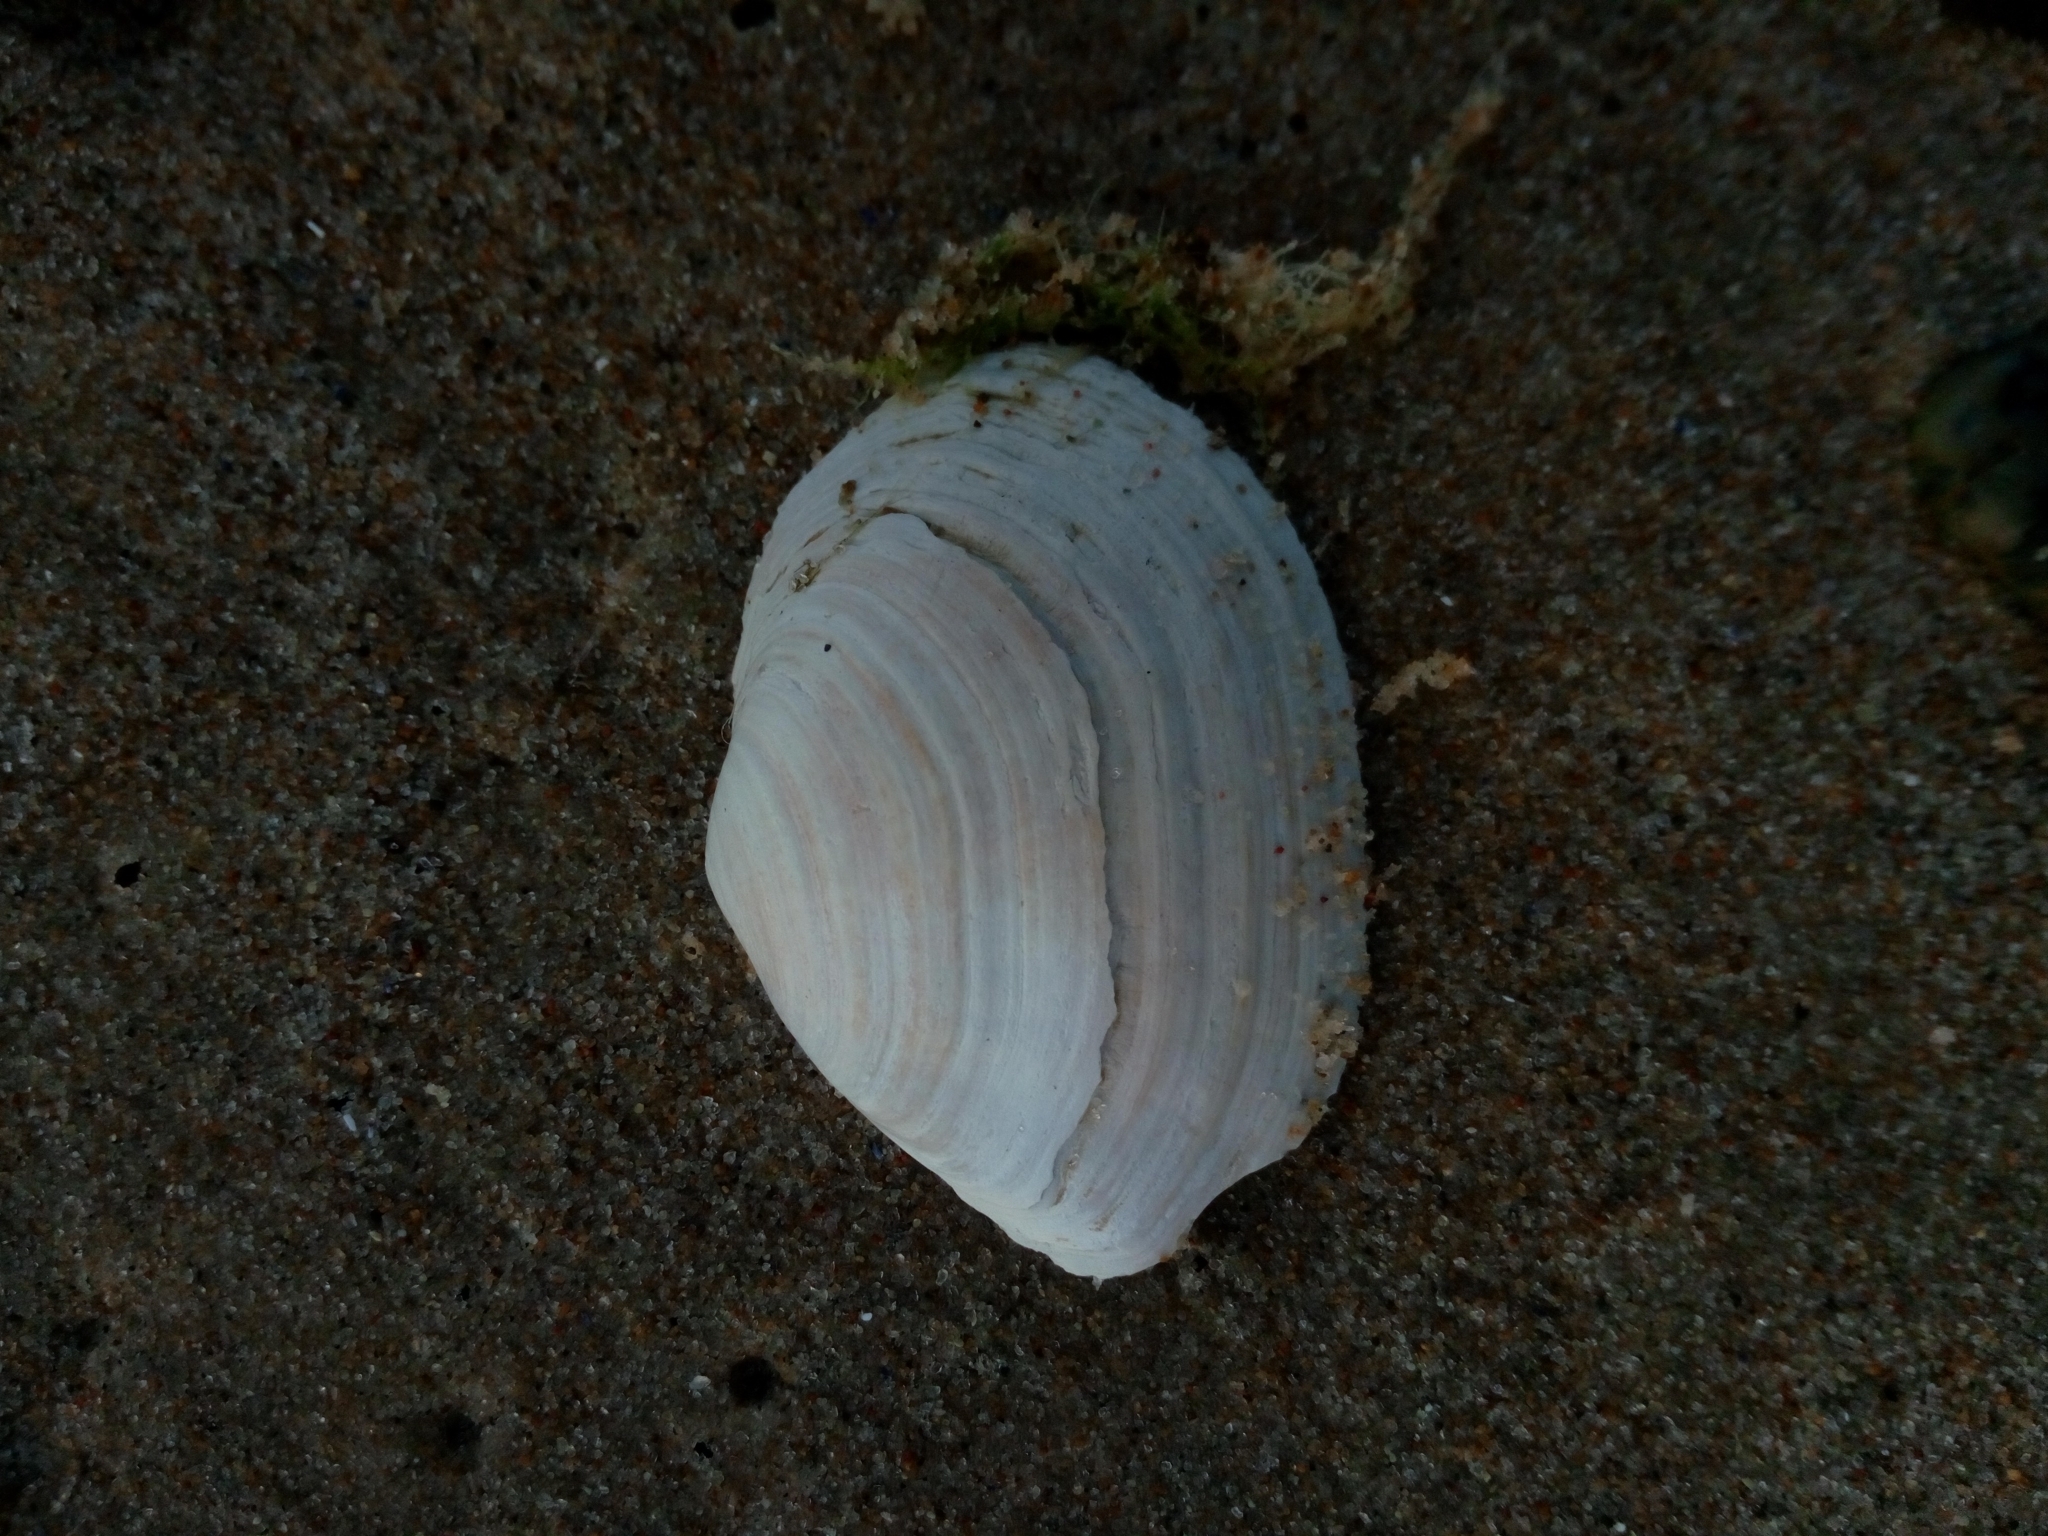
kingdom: Animalia
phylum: Mollusca
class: Bivalvia
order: Myida
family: Myidae
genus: Mya
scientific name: Mya arenaria
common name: Soft-shelled clam
